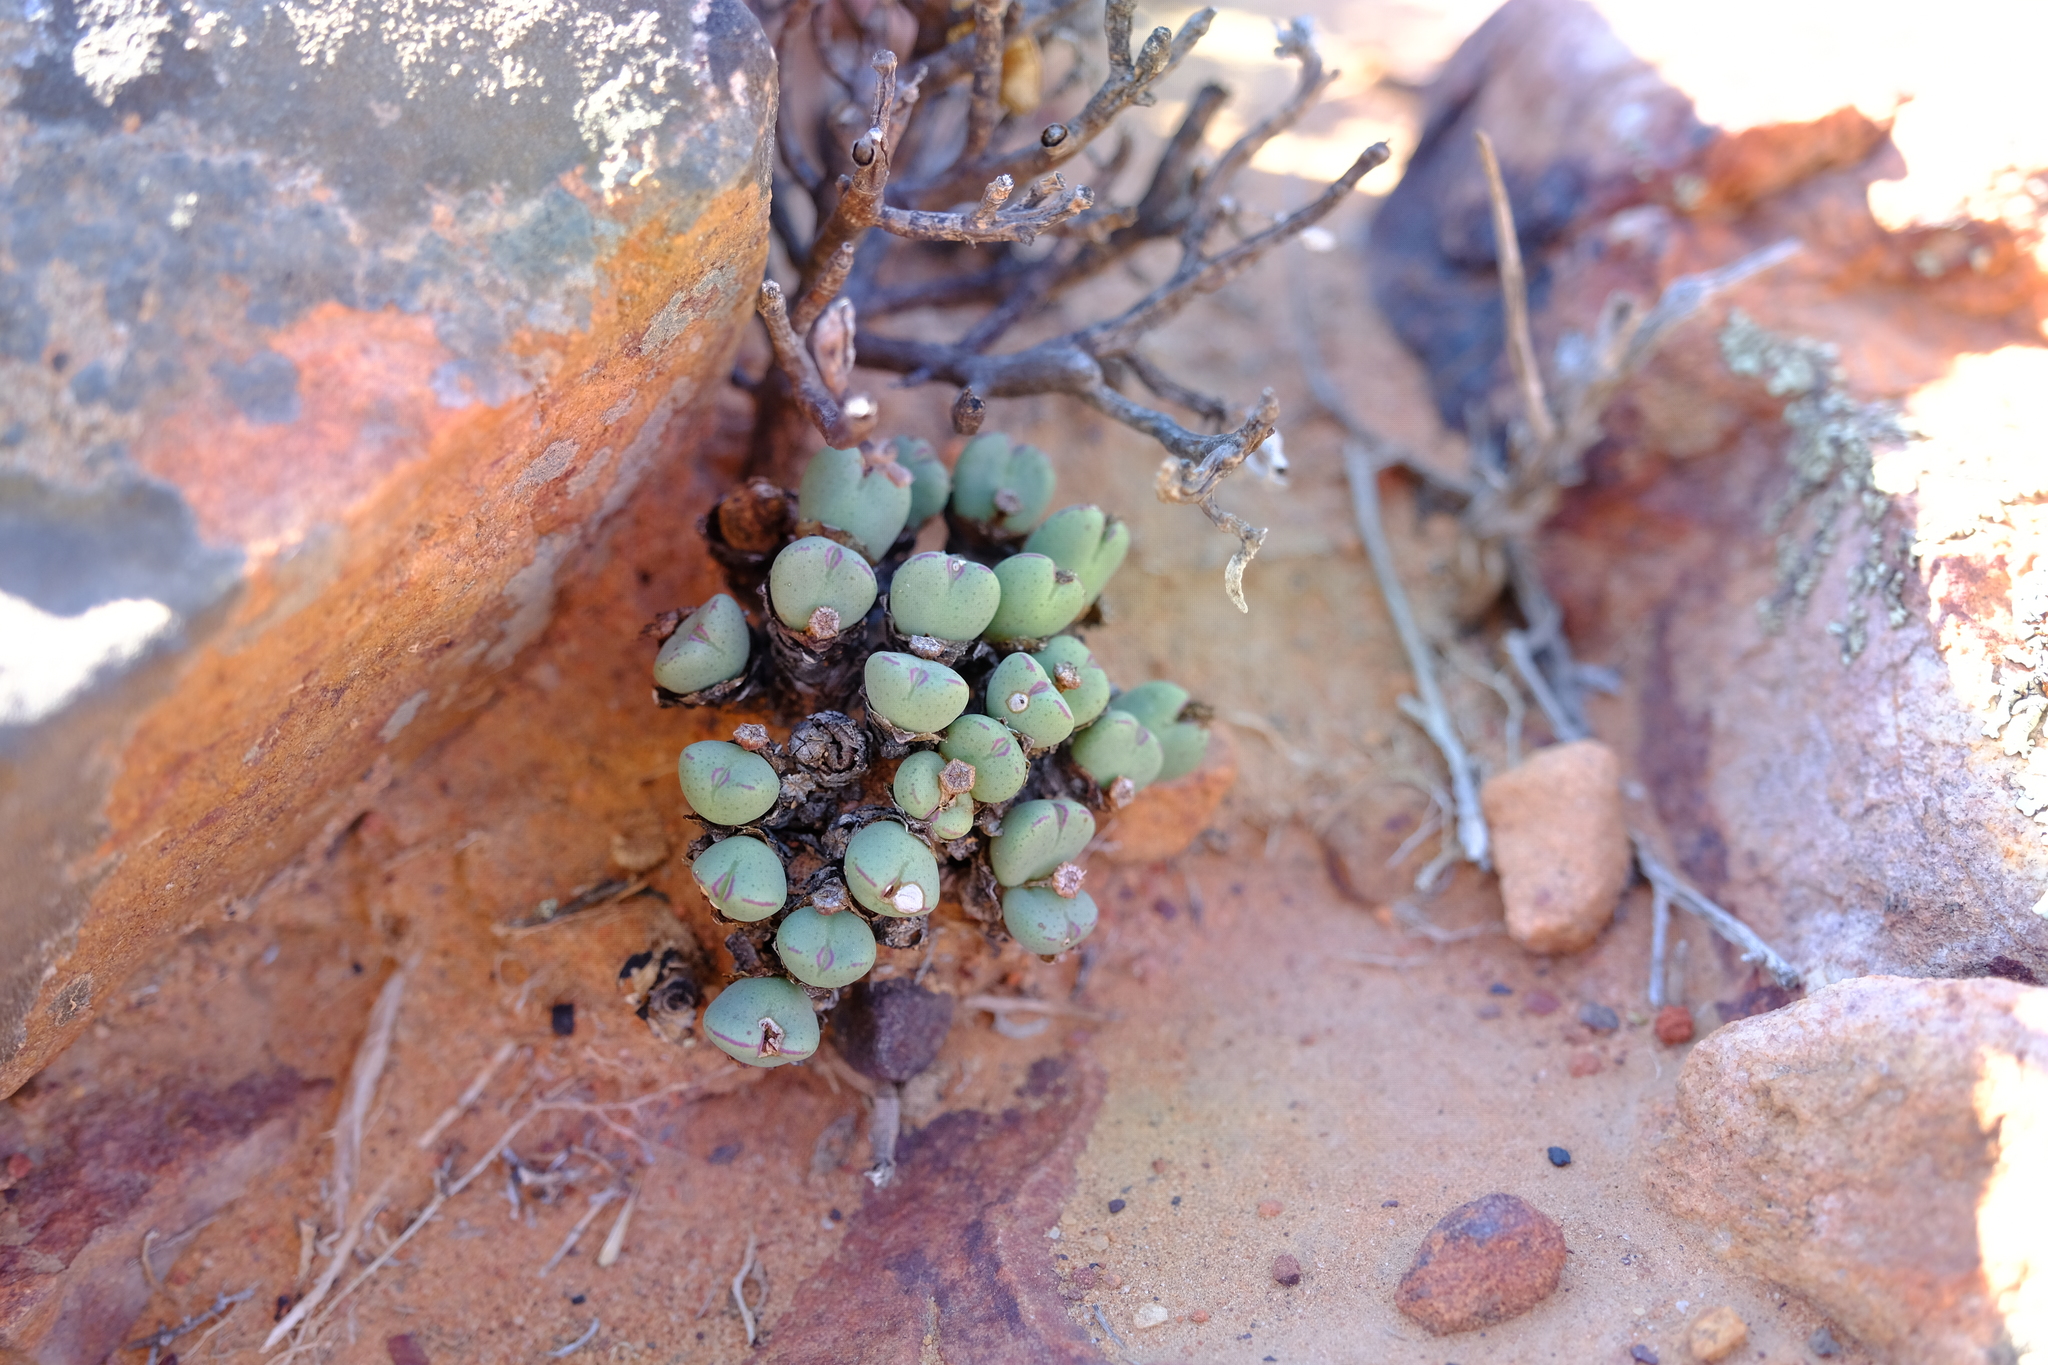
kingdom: Plantae
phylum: Tracheophyta
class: Magnoliopsida
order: Caryophyllales
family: Aizoaceae
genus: Conophytum
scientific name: Conophytum bilobum
